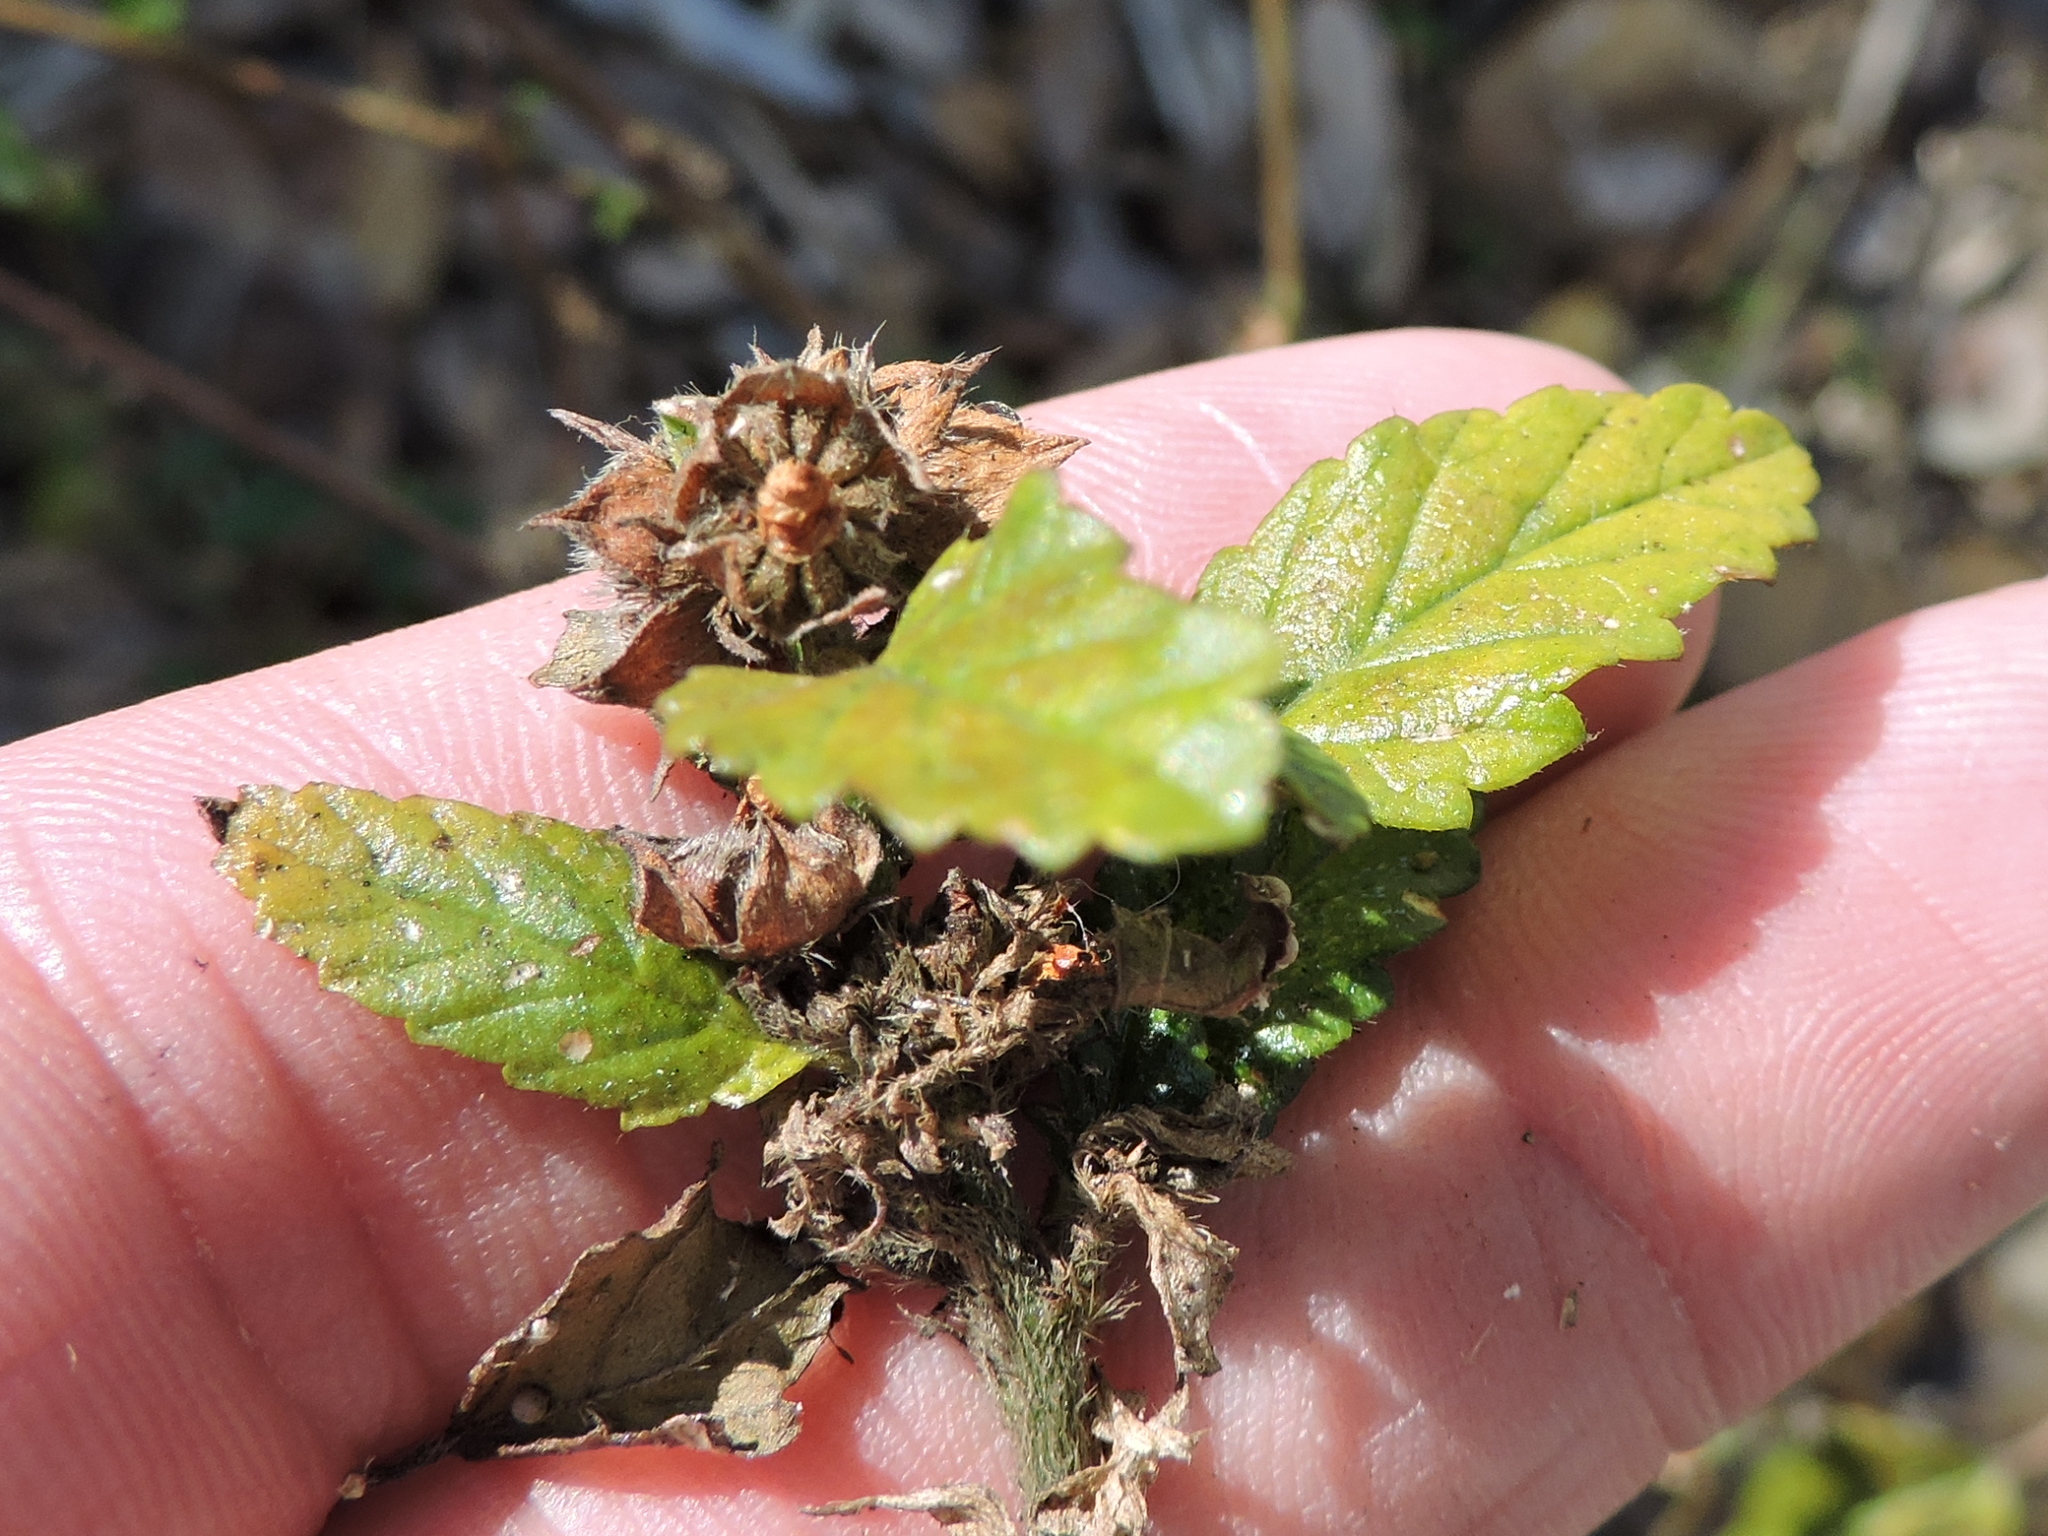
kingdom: Plantae
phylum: Tracheophyta
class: Magnoliopsida
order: Malvales
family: Malvaceae
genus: Malvastrum
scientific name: Malvastrum coromandelianum
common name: Threelobe false mallow
